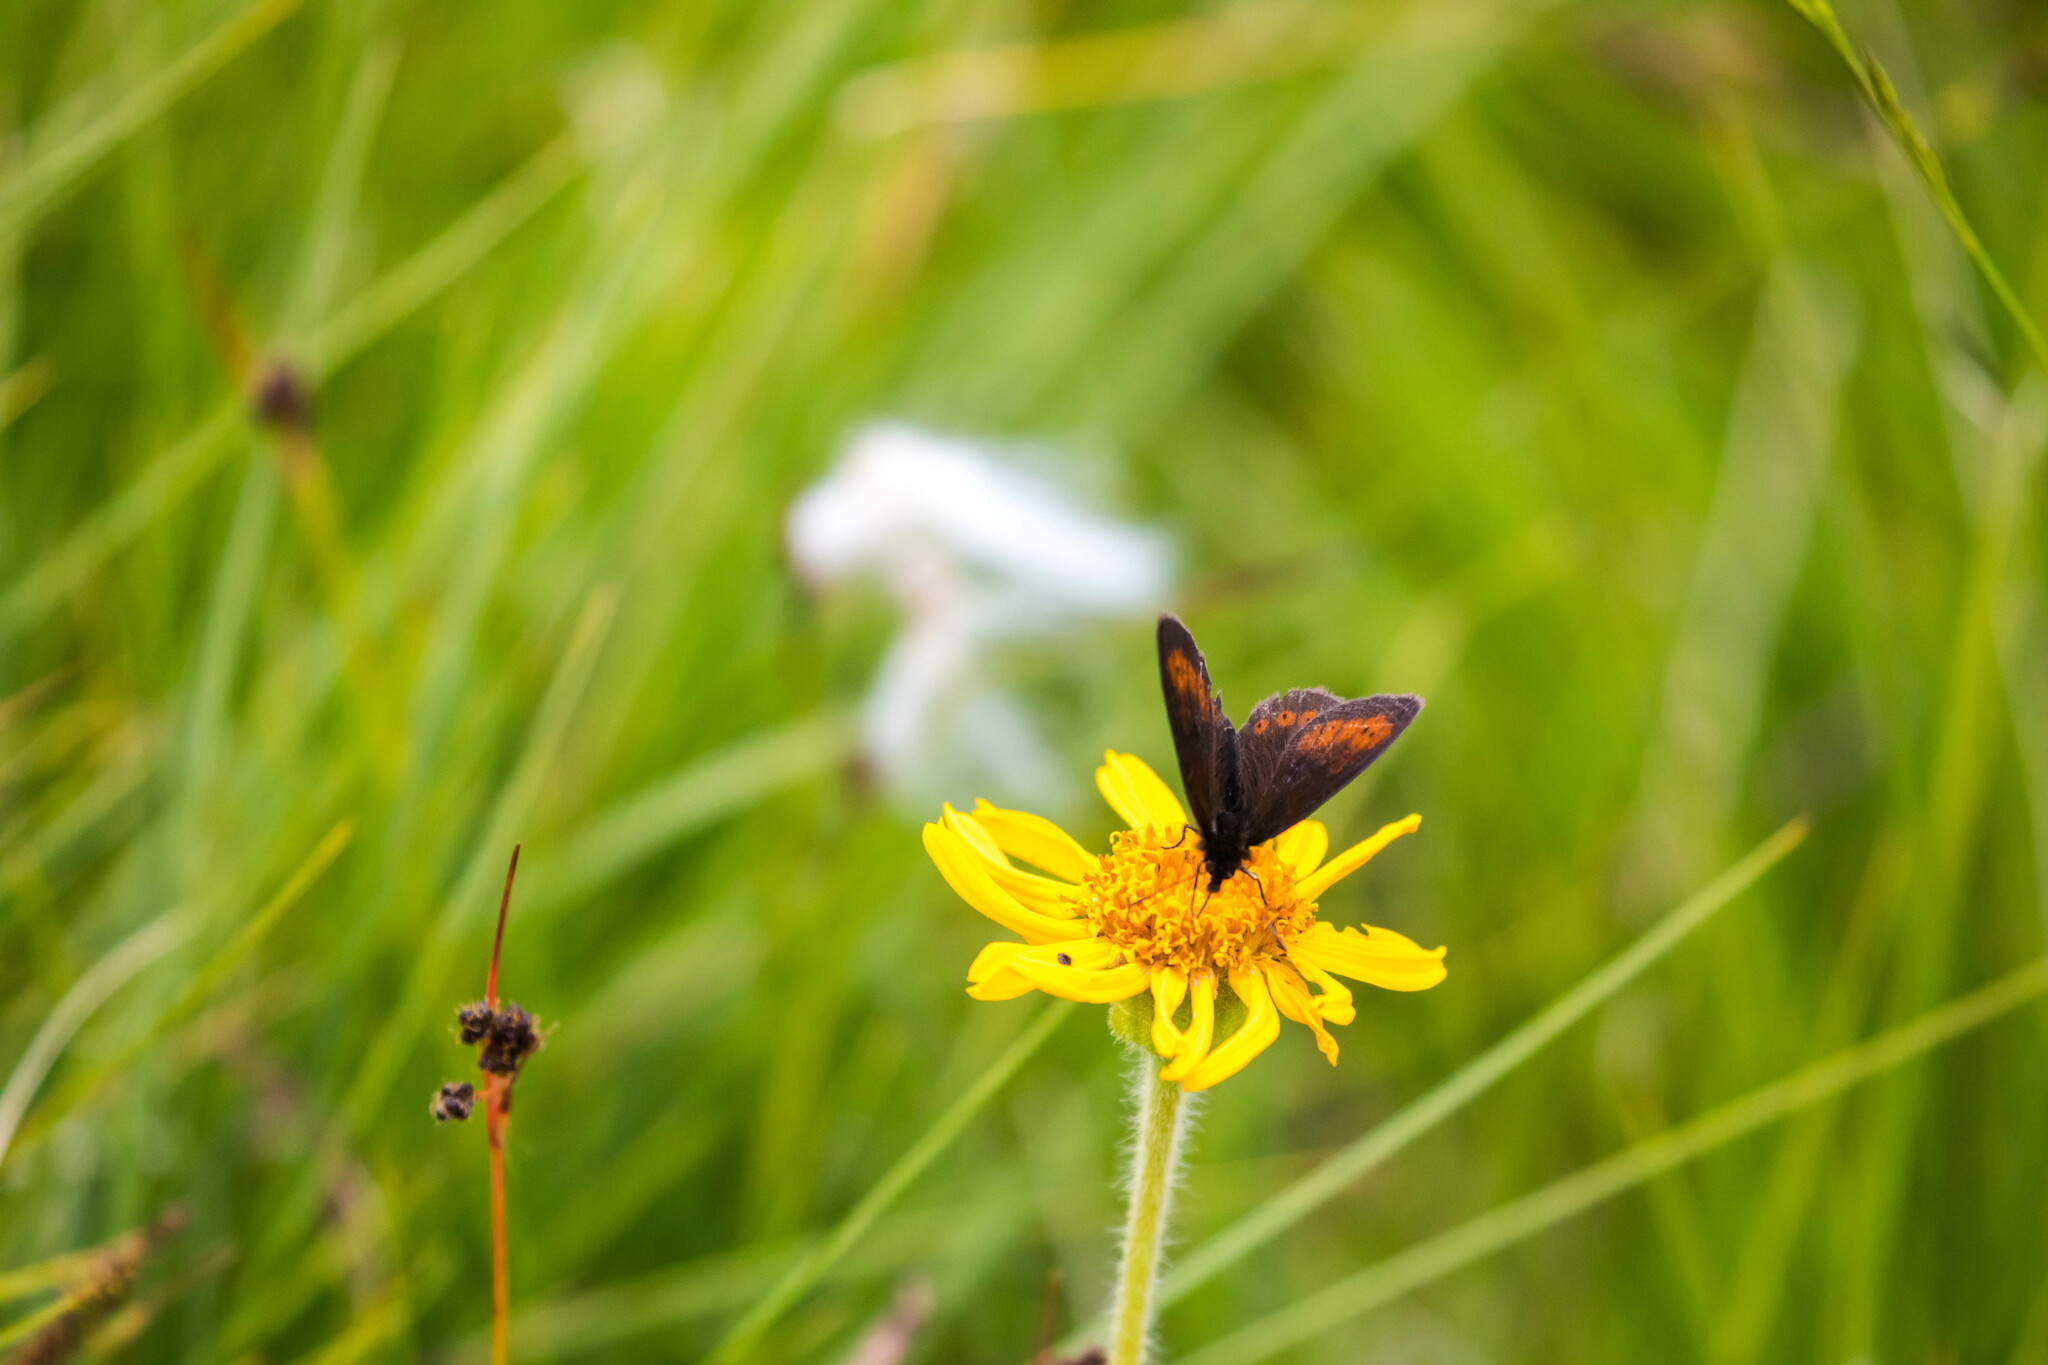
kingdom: Animalia
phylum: Arthropoda
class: Insecta
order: Lepidoptera
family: Nymphalidae
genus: Erebia
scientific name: Erebia epiphron
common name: Mountain ringlet
